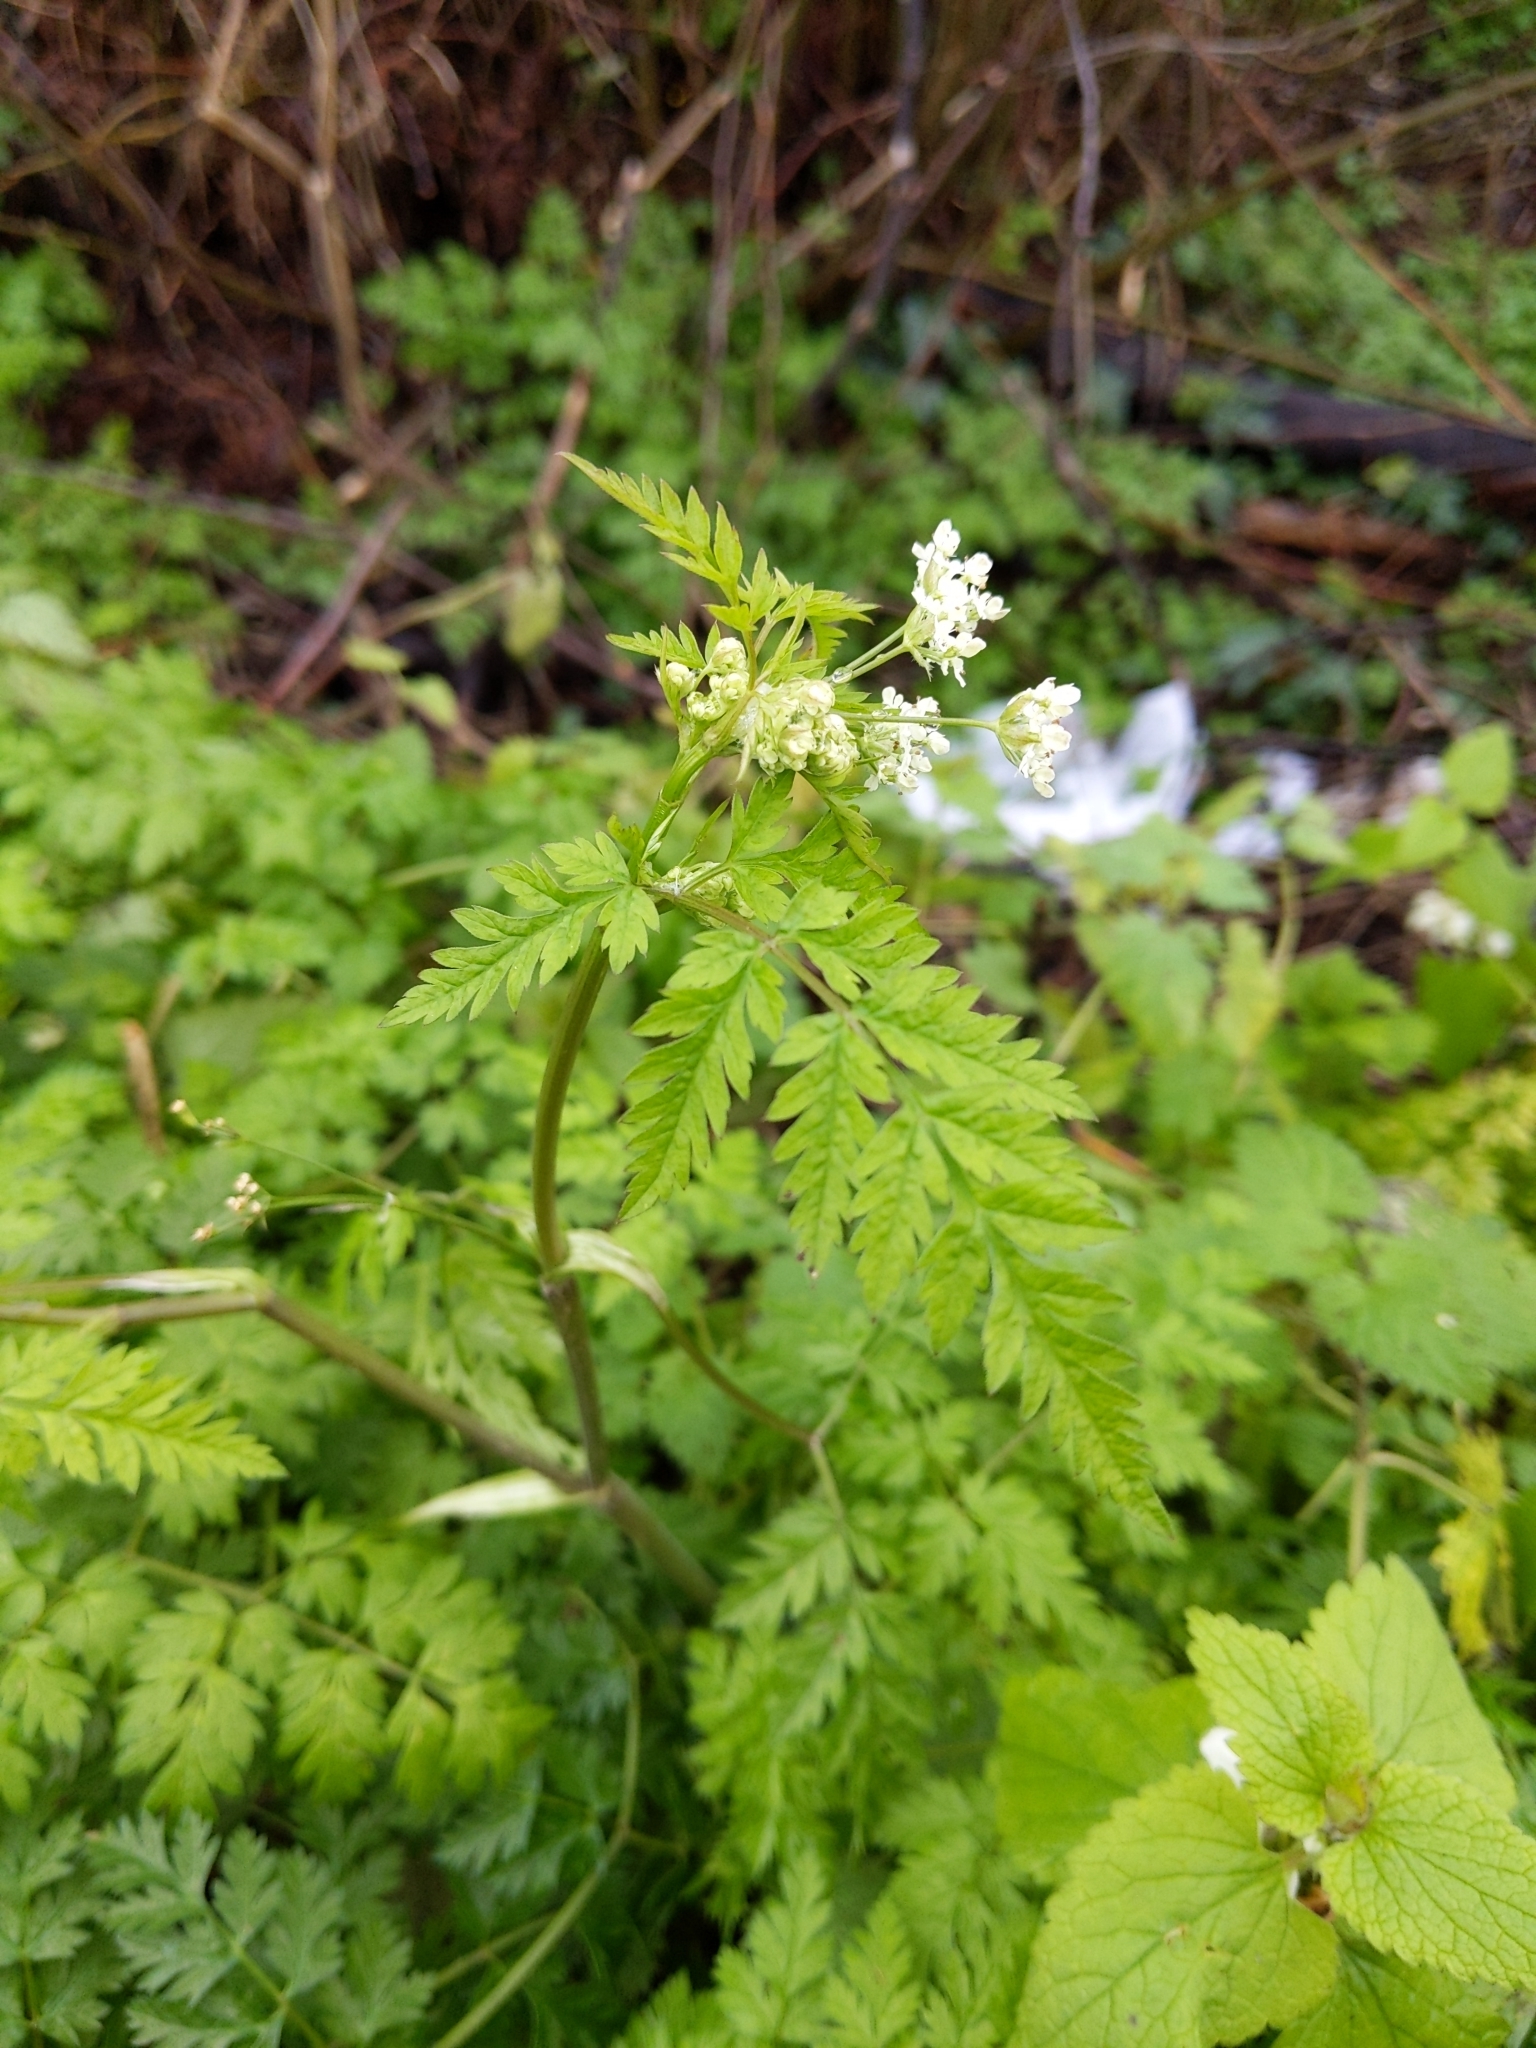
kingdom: Plantae
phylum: Tracheophyta
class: Magnoliopsida
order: Apiales
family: Apiaceae
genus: Anthriscus
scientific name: Anthriscus sylvestris
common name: Cow parsley
